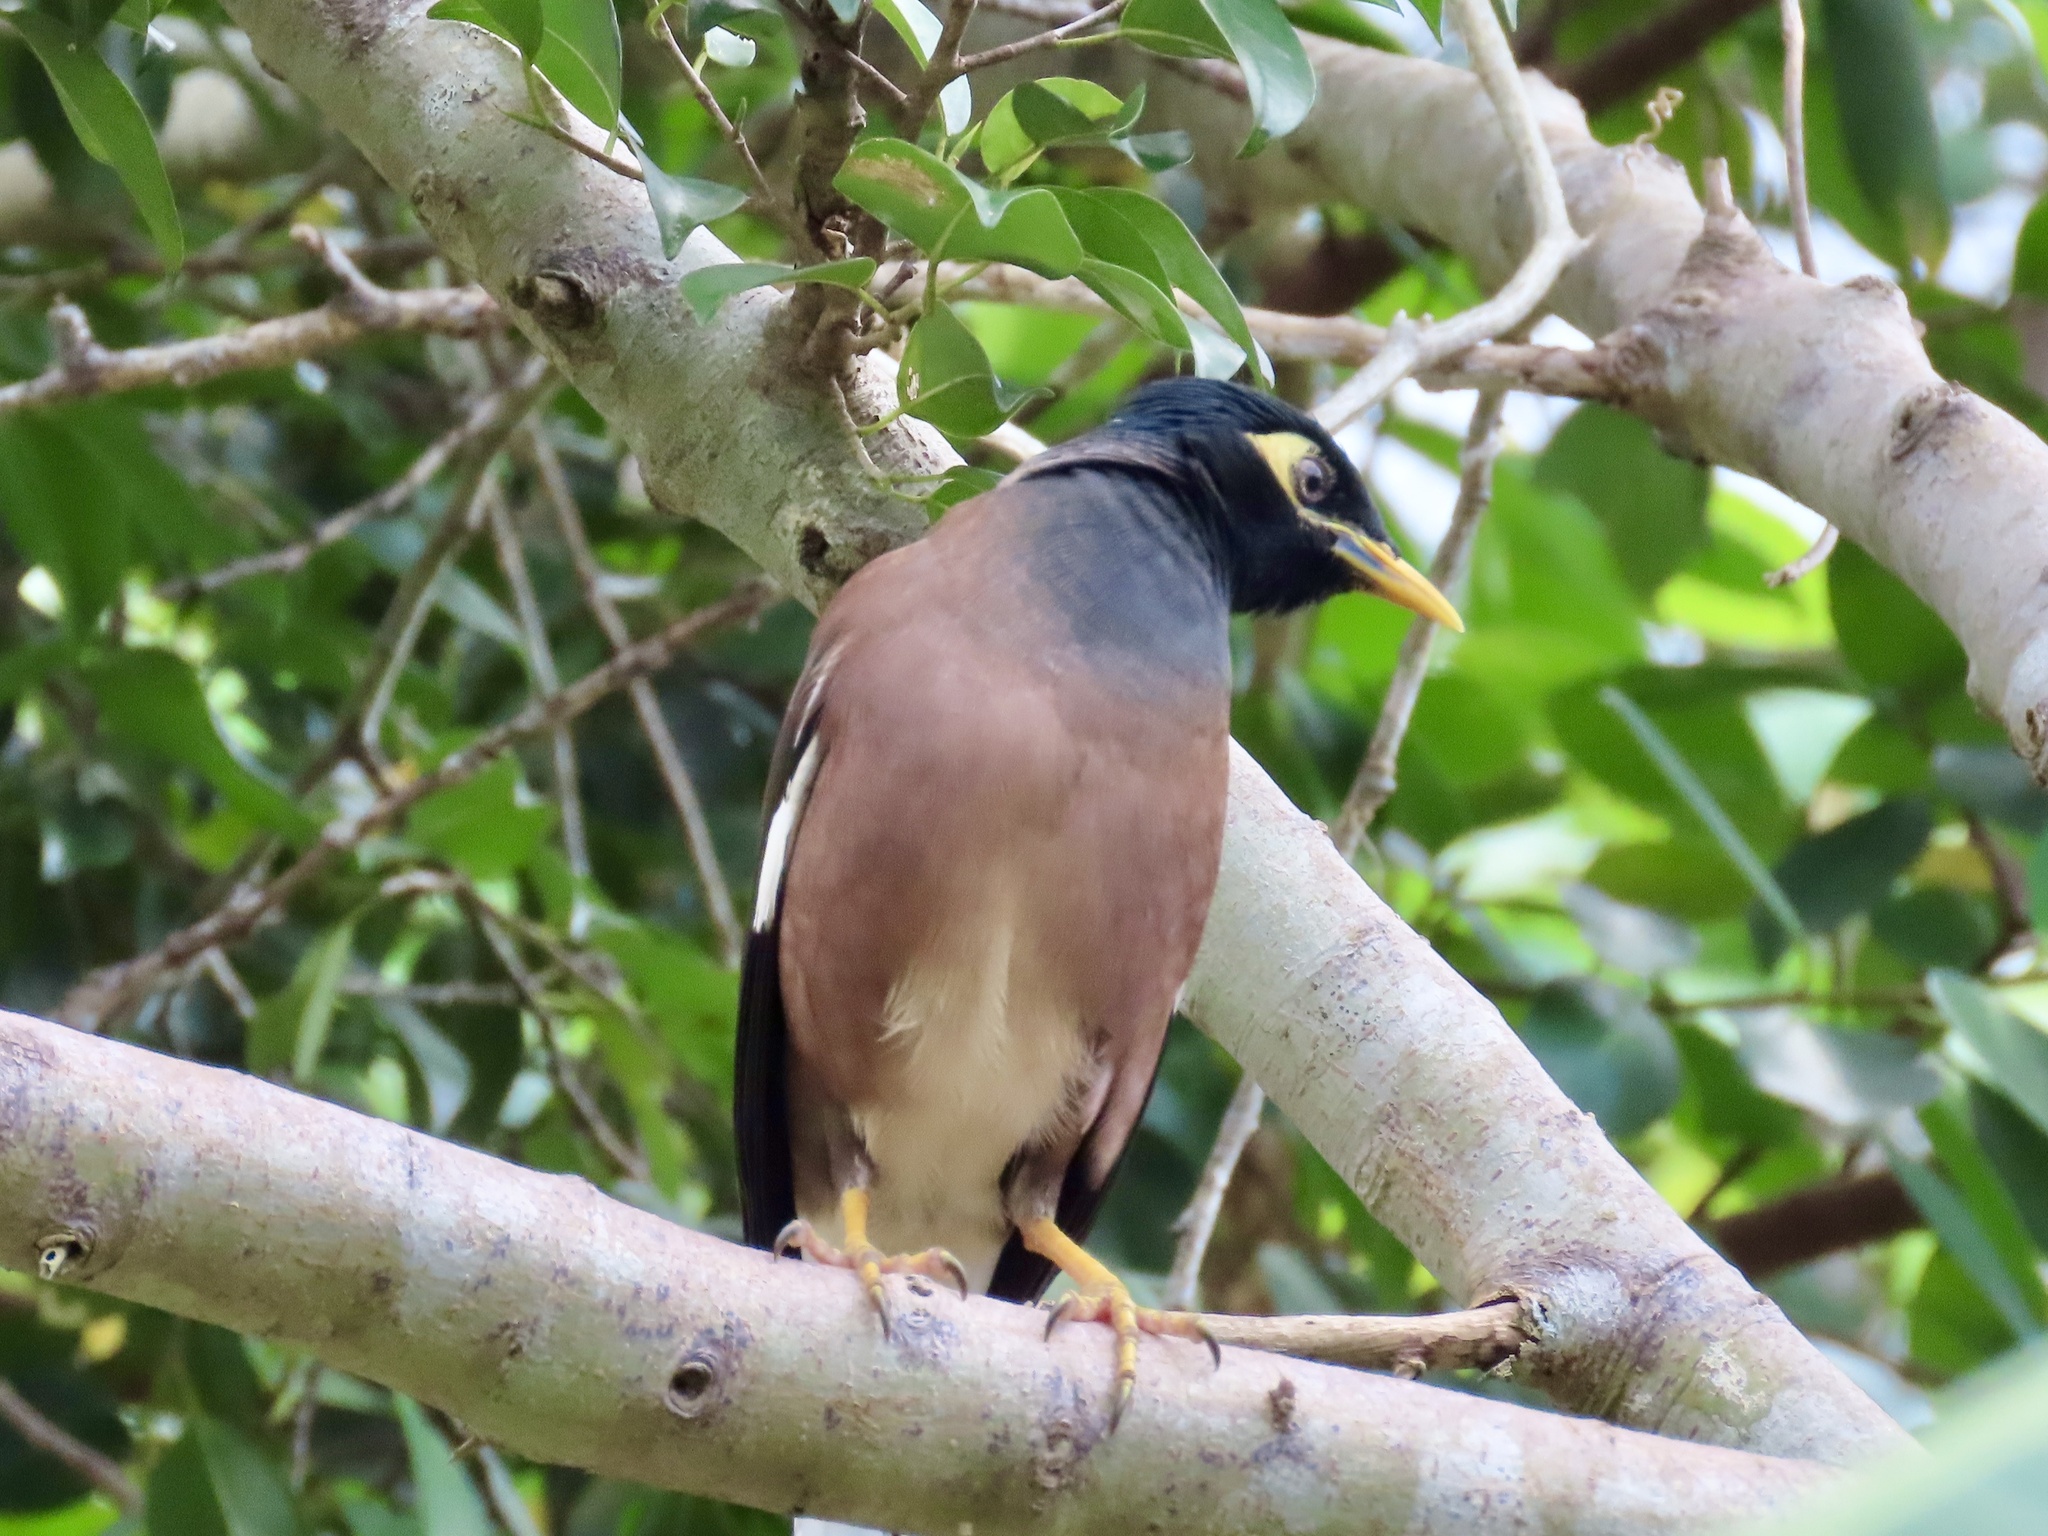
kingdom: Animalia
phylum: Chordata
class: Aves
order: Passeriformes
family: Sturnidae
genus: Acridotheres
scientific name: Acridotheres tristis
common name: Common myna
